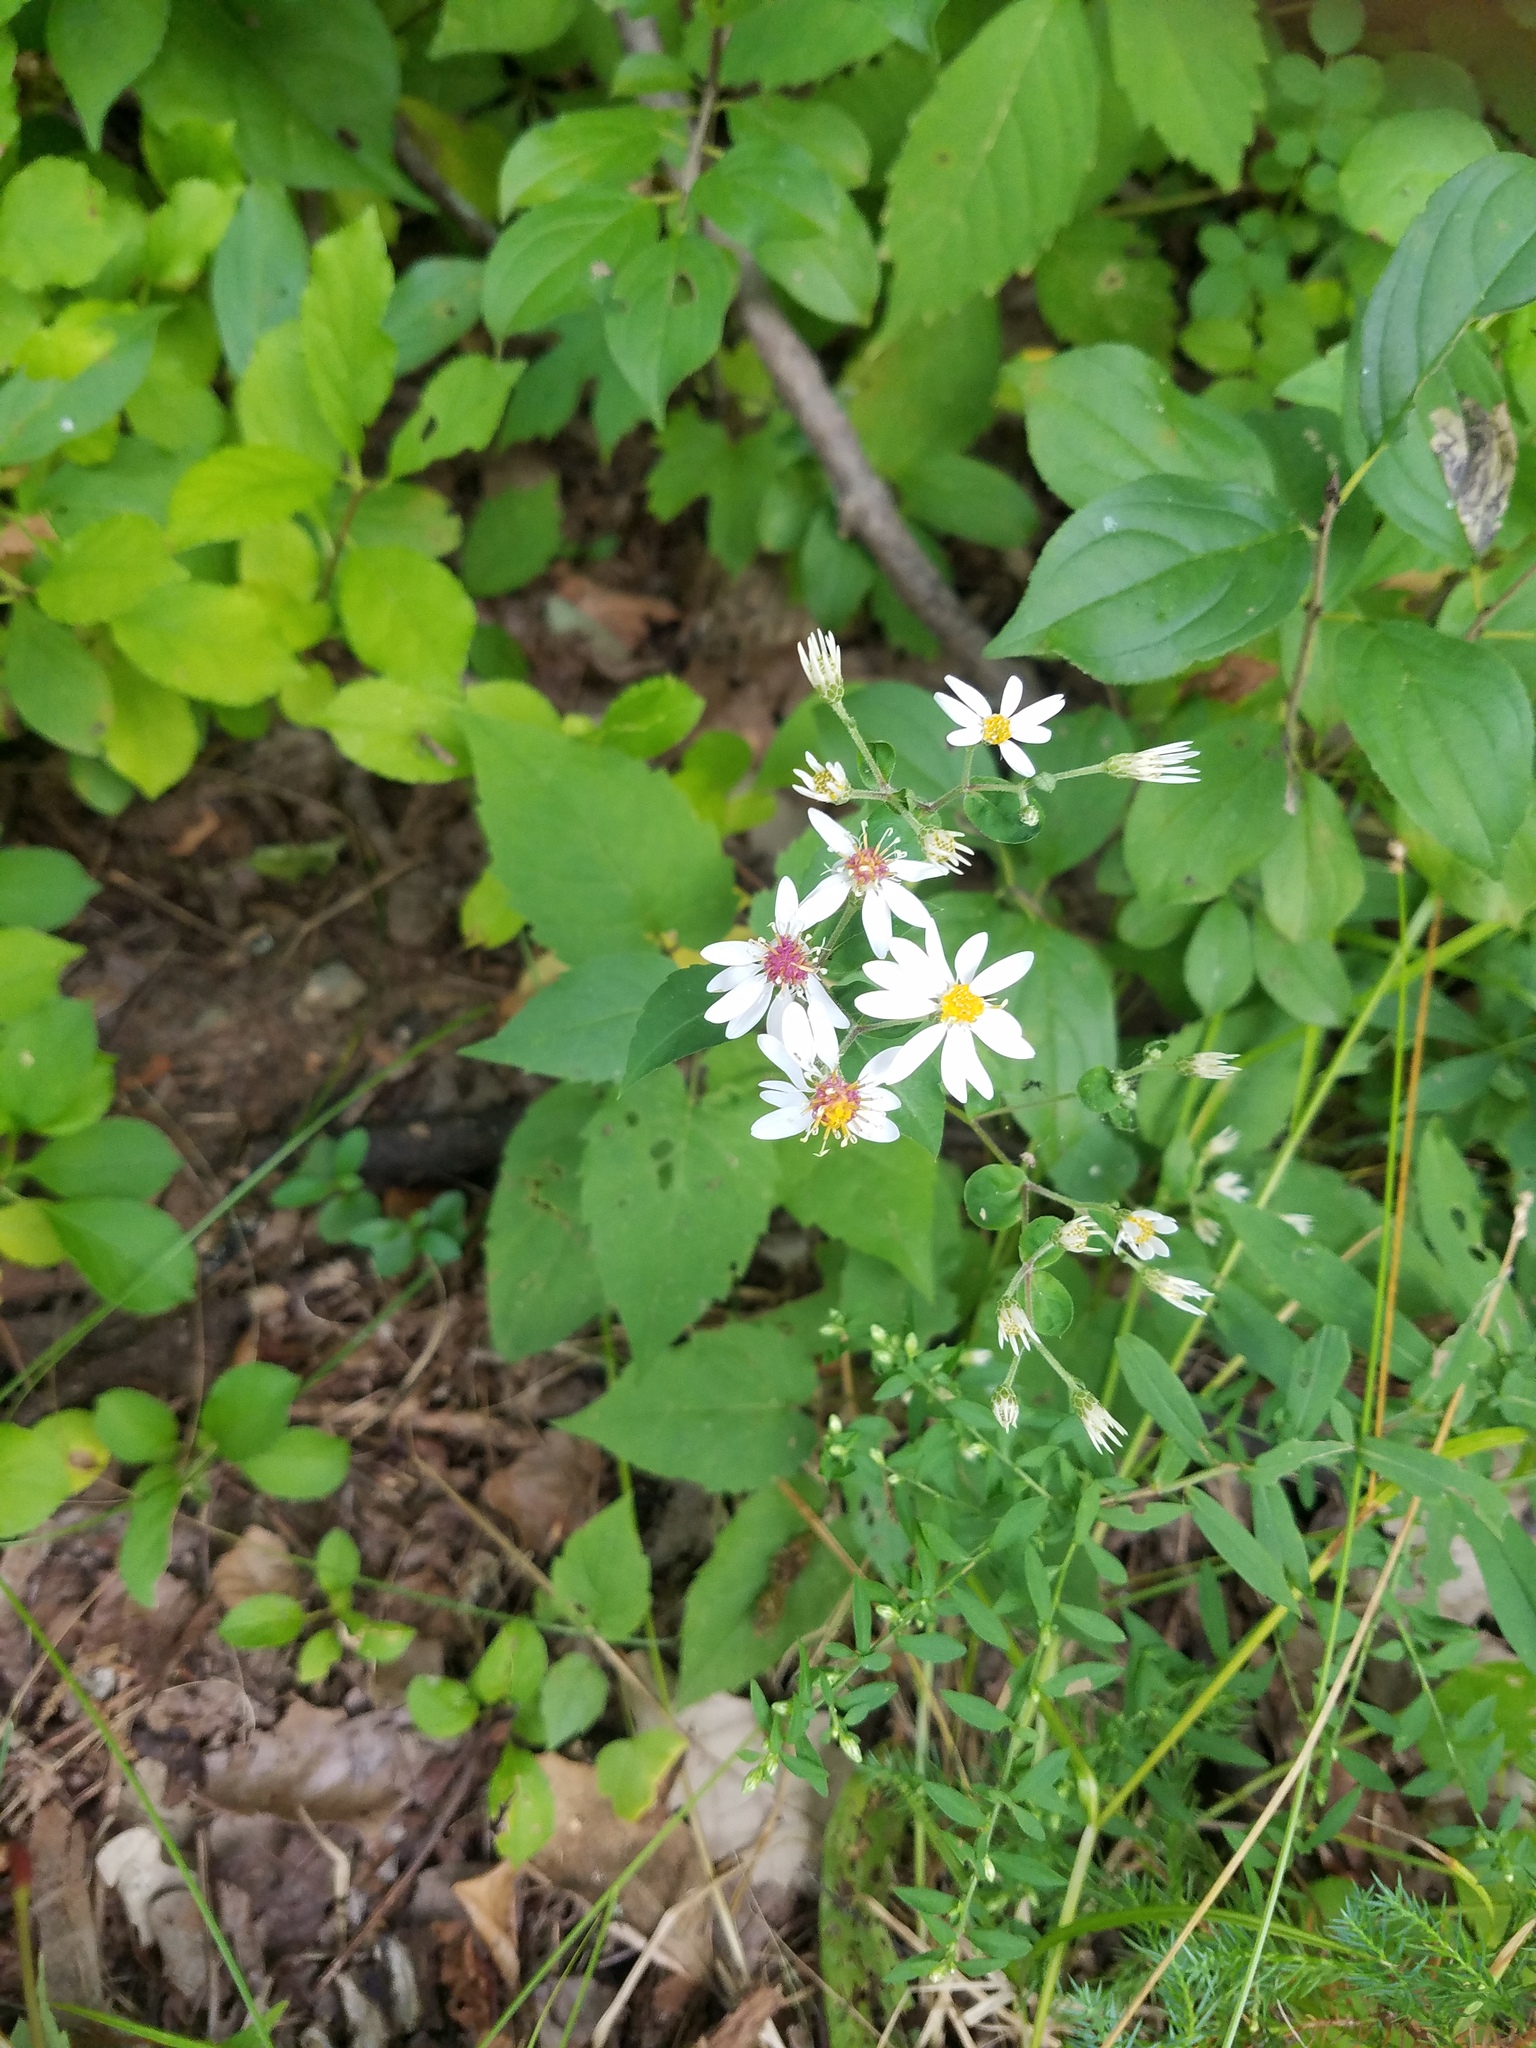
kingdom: Plantae
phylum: Tracheophyta
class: Magnoliopsida
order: Asterales
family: Asteraceae
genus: Symphyotrichum
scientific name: Symphyotrichum cordifolium
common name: Beeweed
